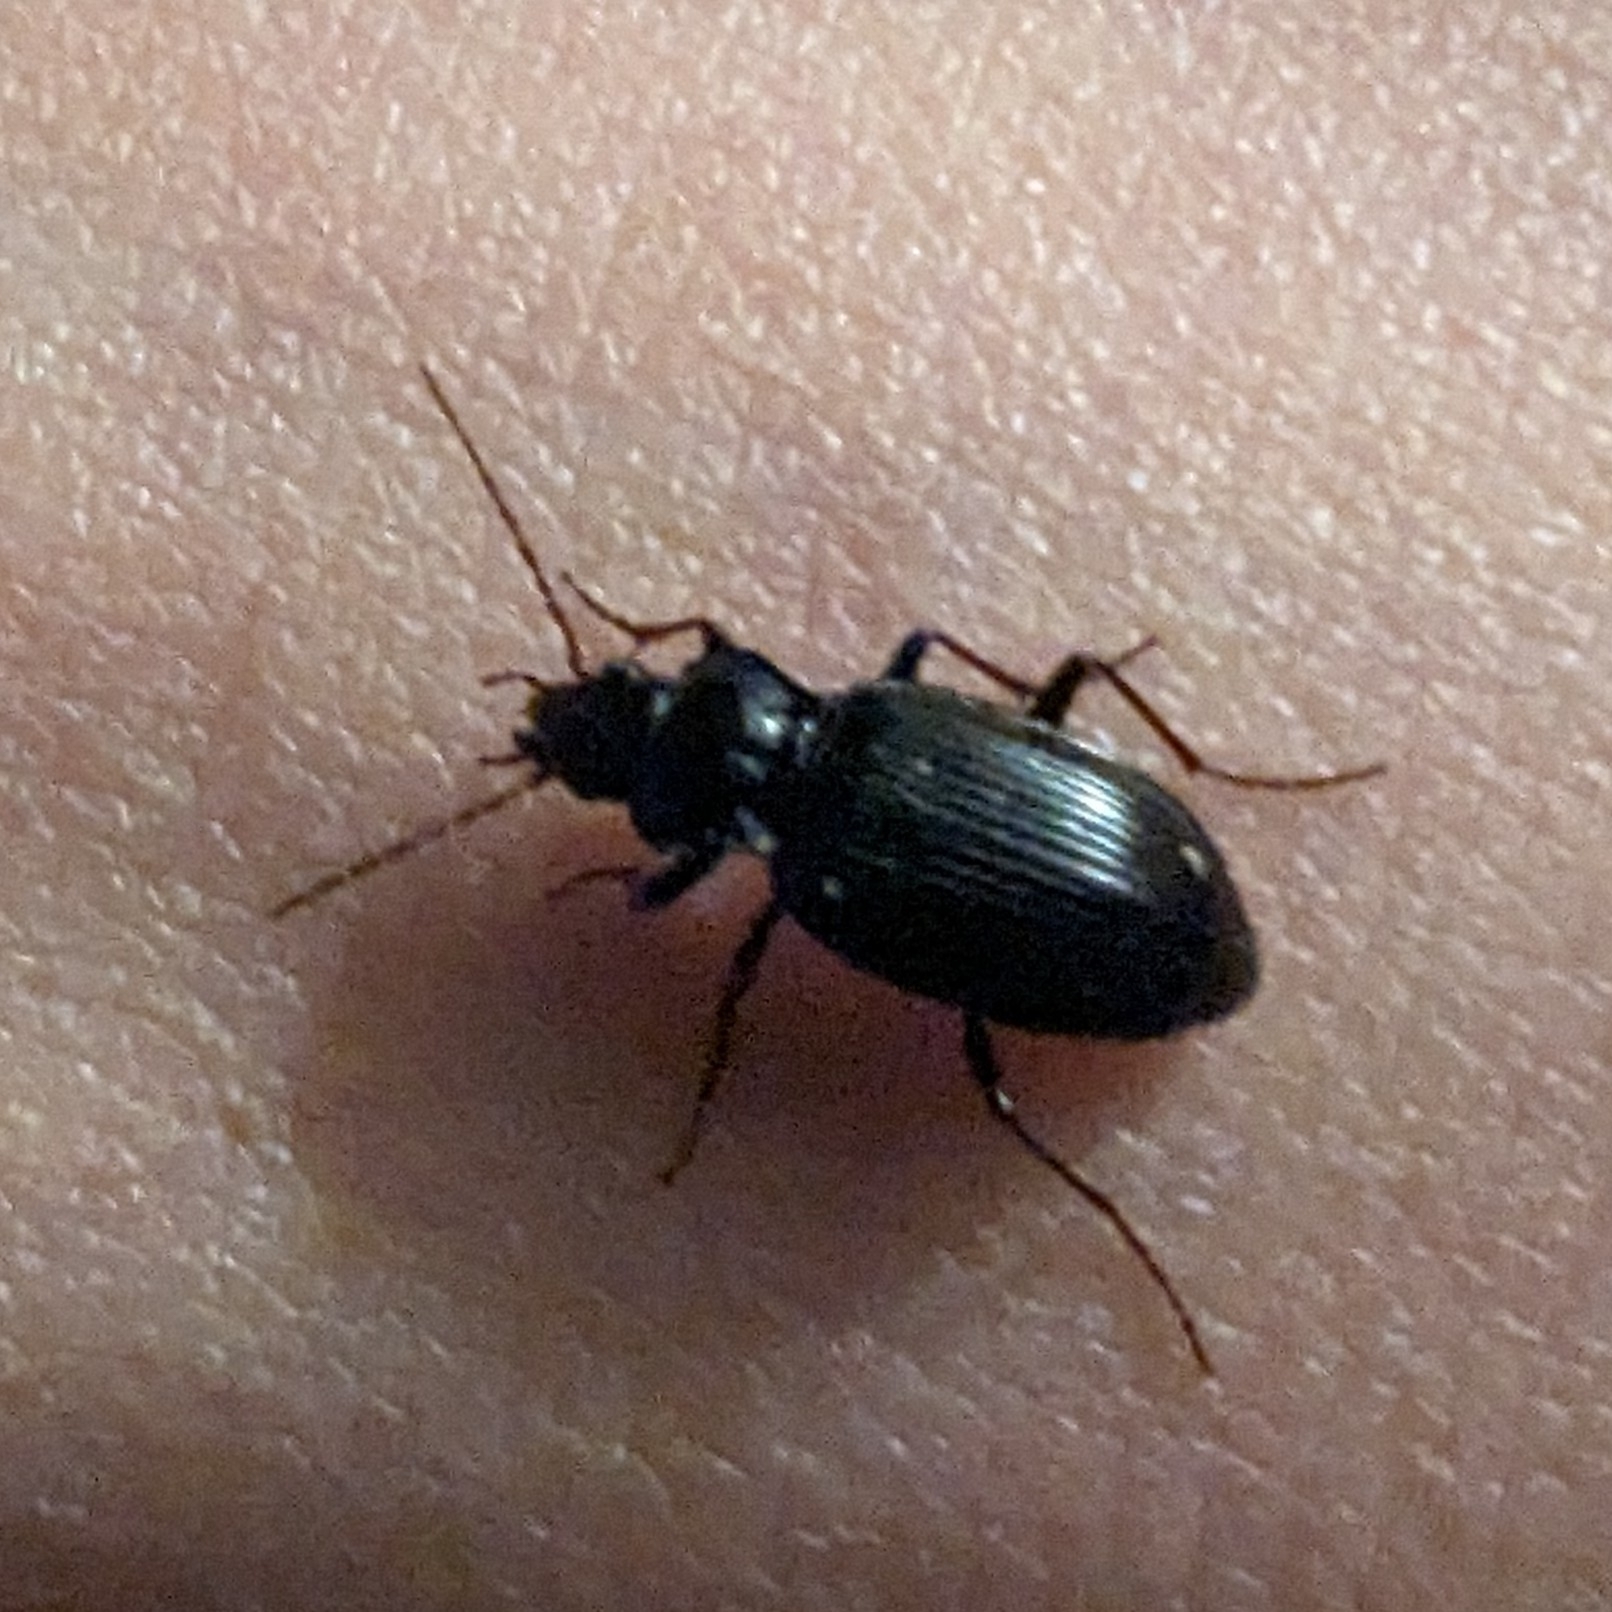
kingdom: Animalia
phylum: Arthropoda
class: Insecta
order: Coleoptera
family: Carabidae
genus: Nebria
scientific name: Nebria brevicollis
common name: Short-necked gazelle beetle
